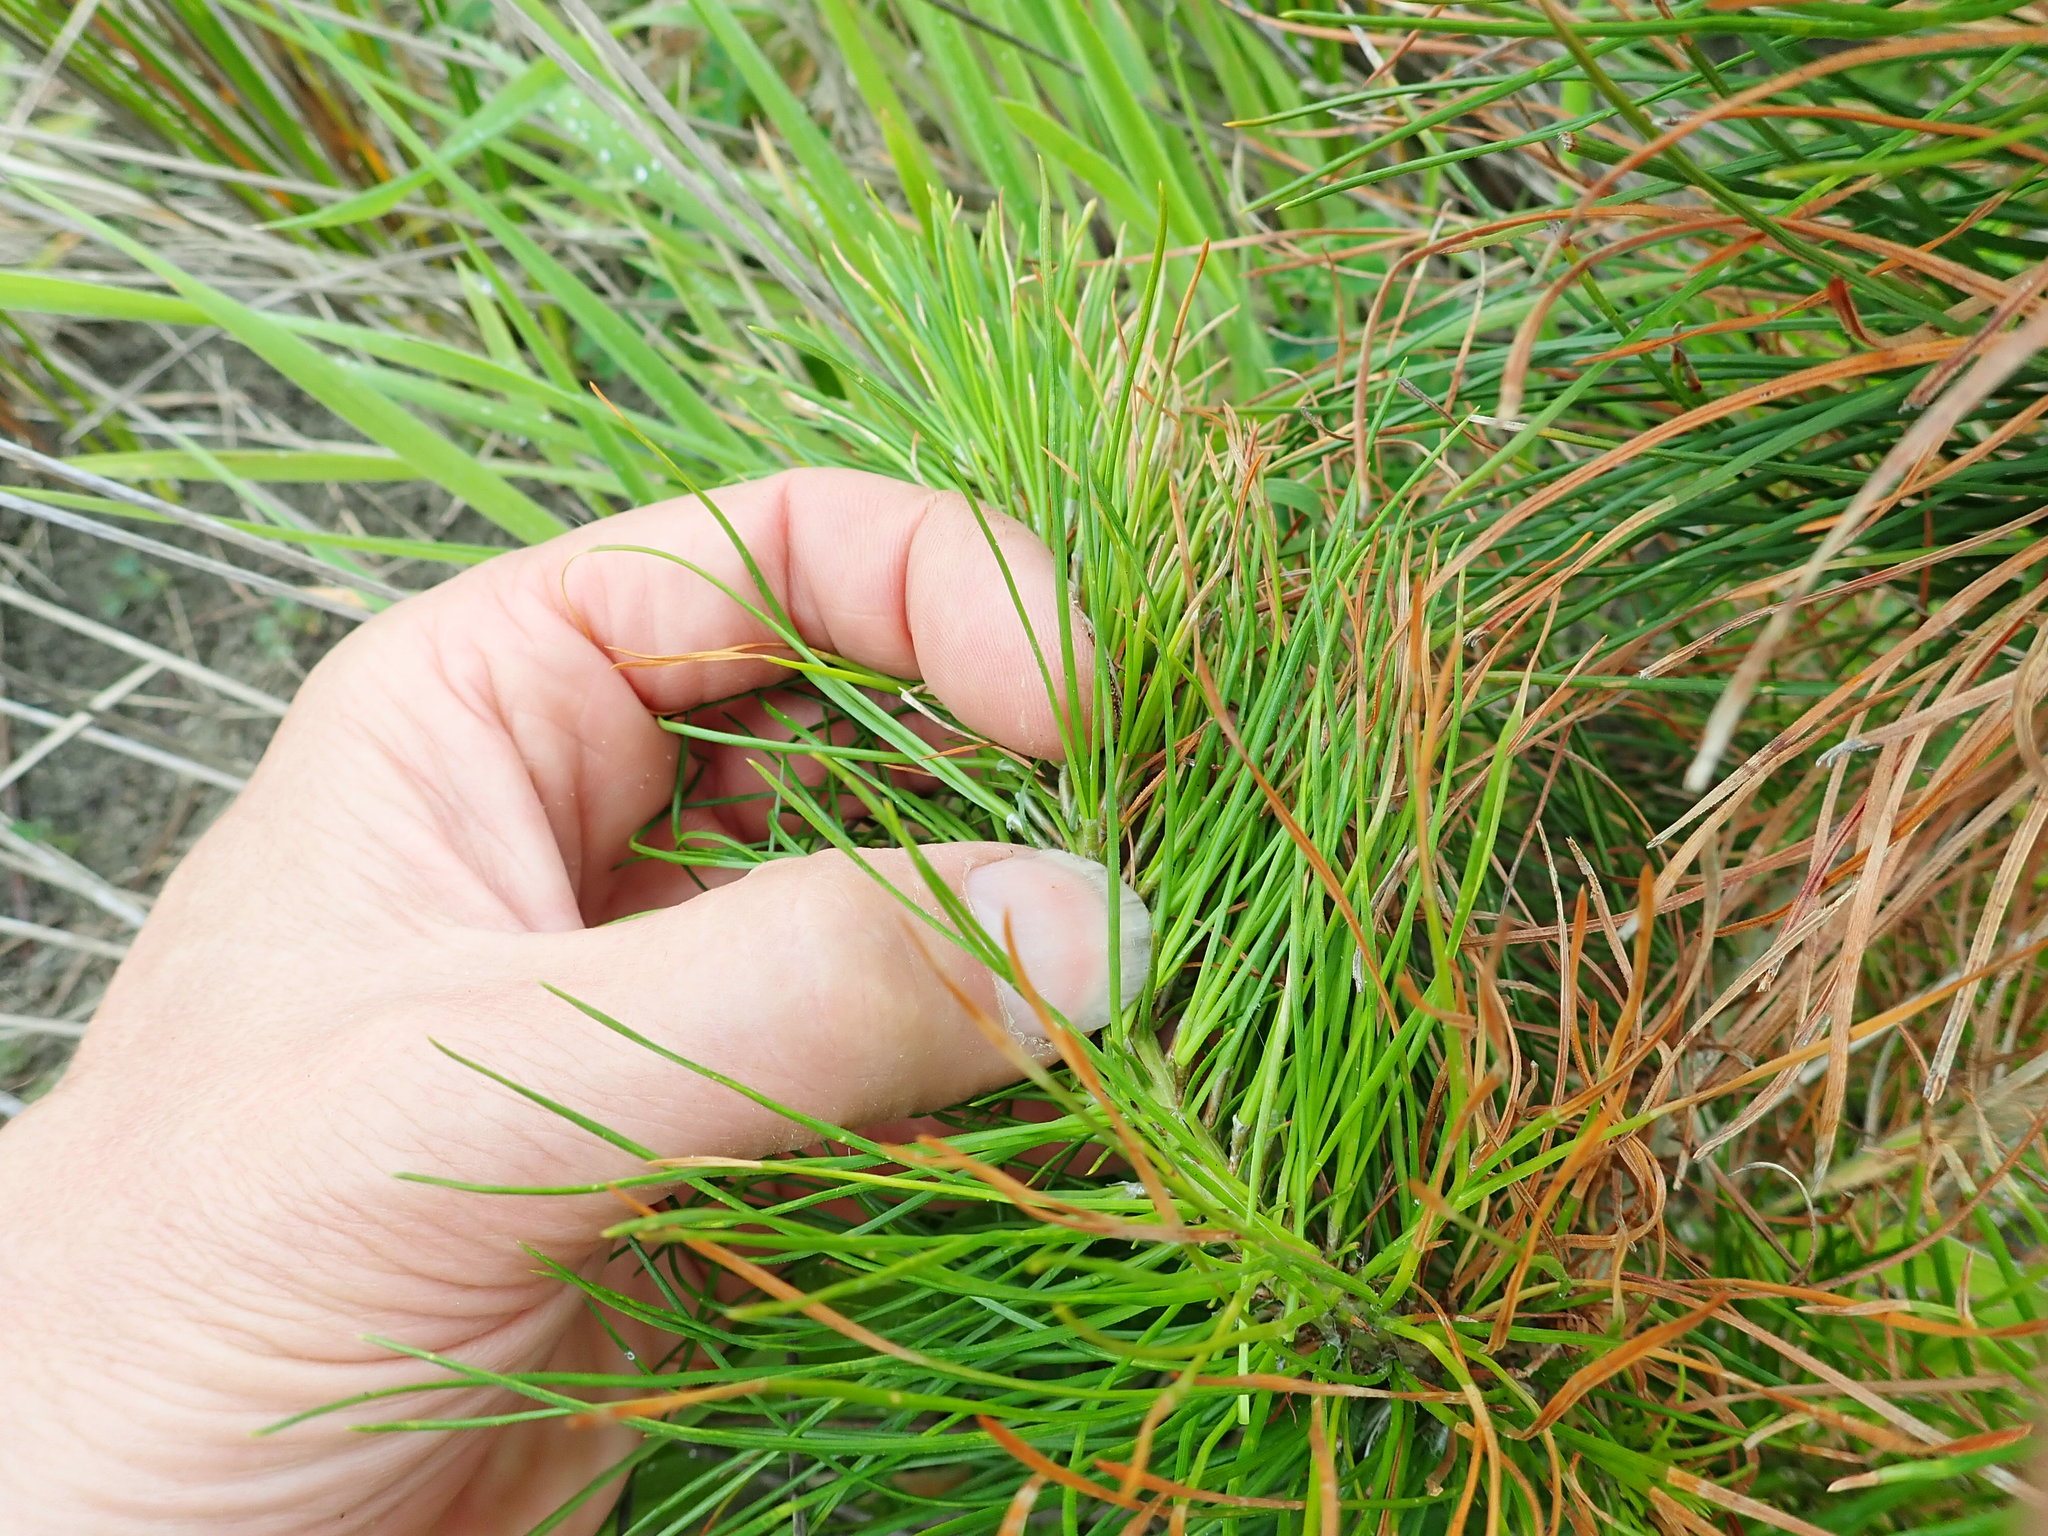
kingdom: Plantae
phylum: Tracheophyta
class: Pinopsida
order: Pinales
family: Pinaceae
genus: Pinus
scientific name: Pinus radiata
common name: Monterey pine
